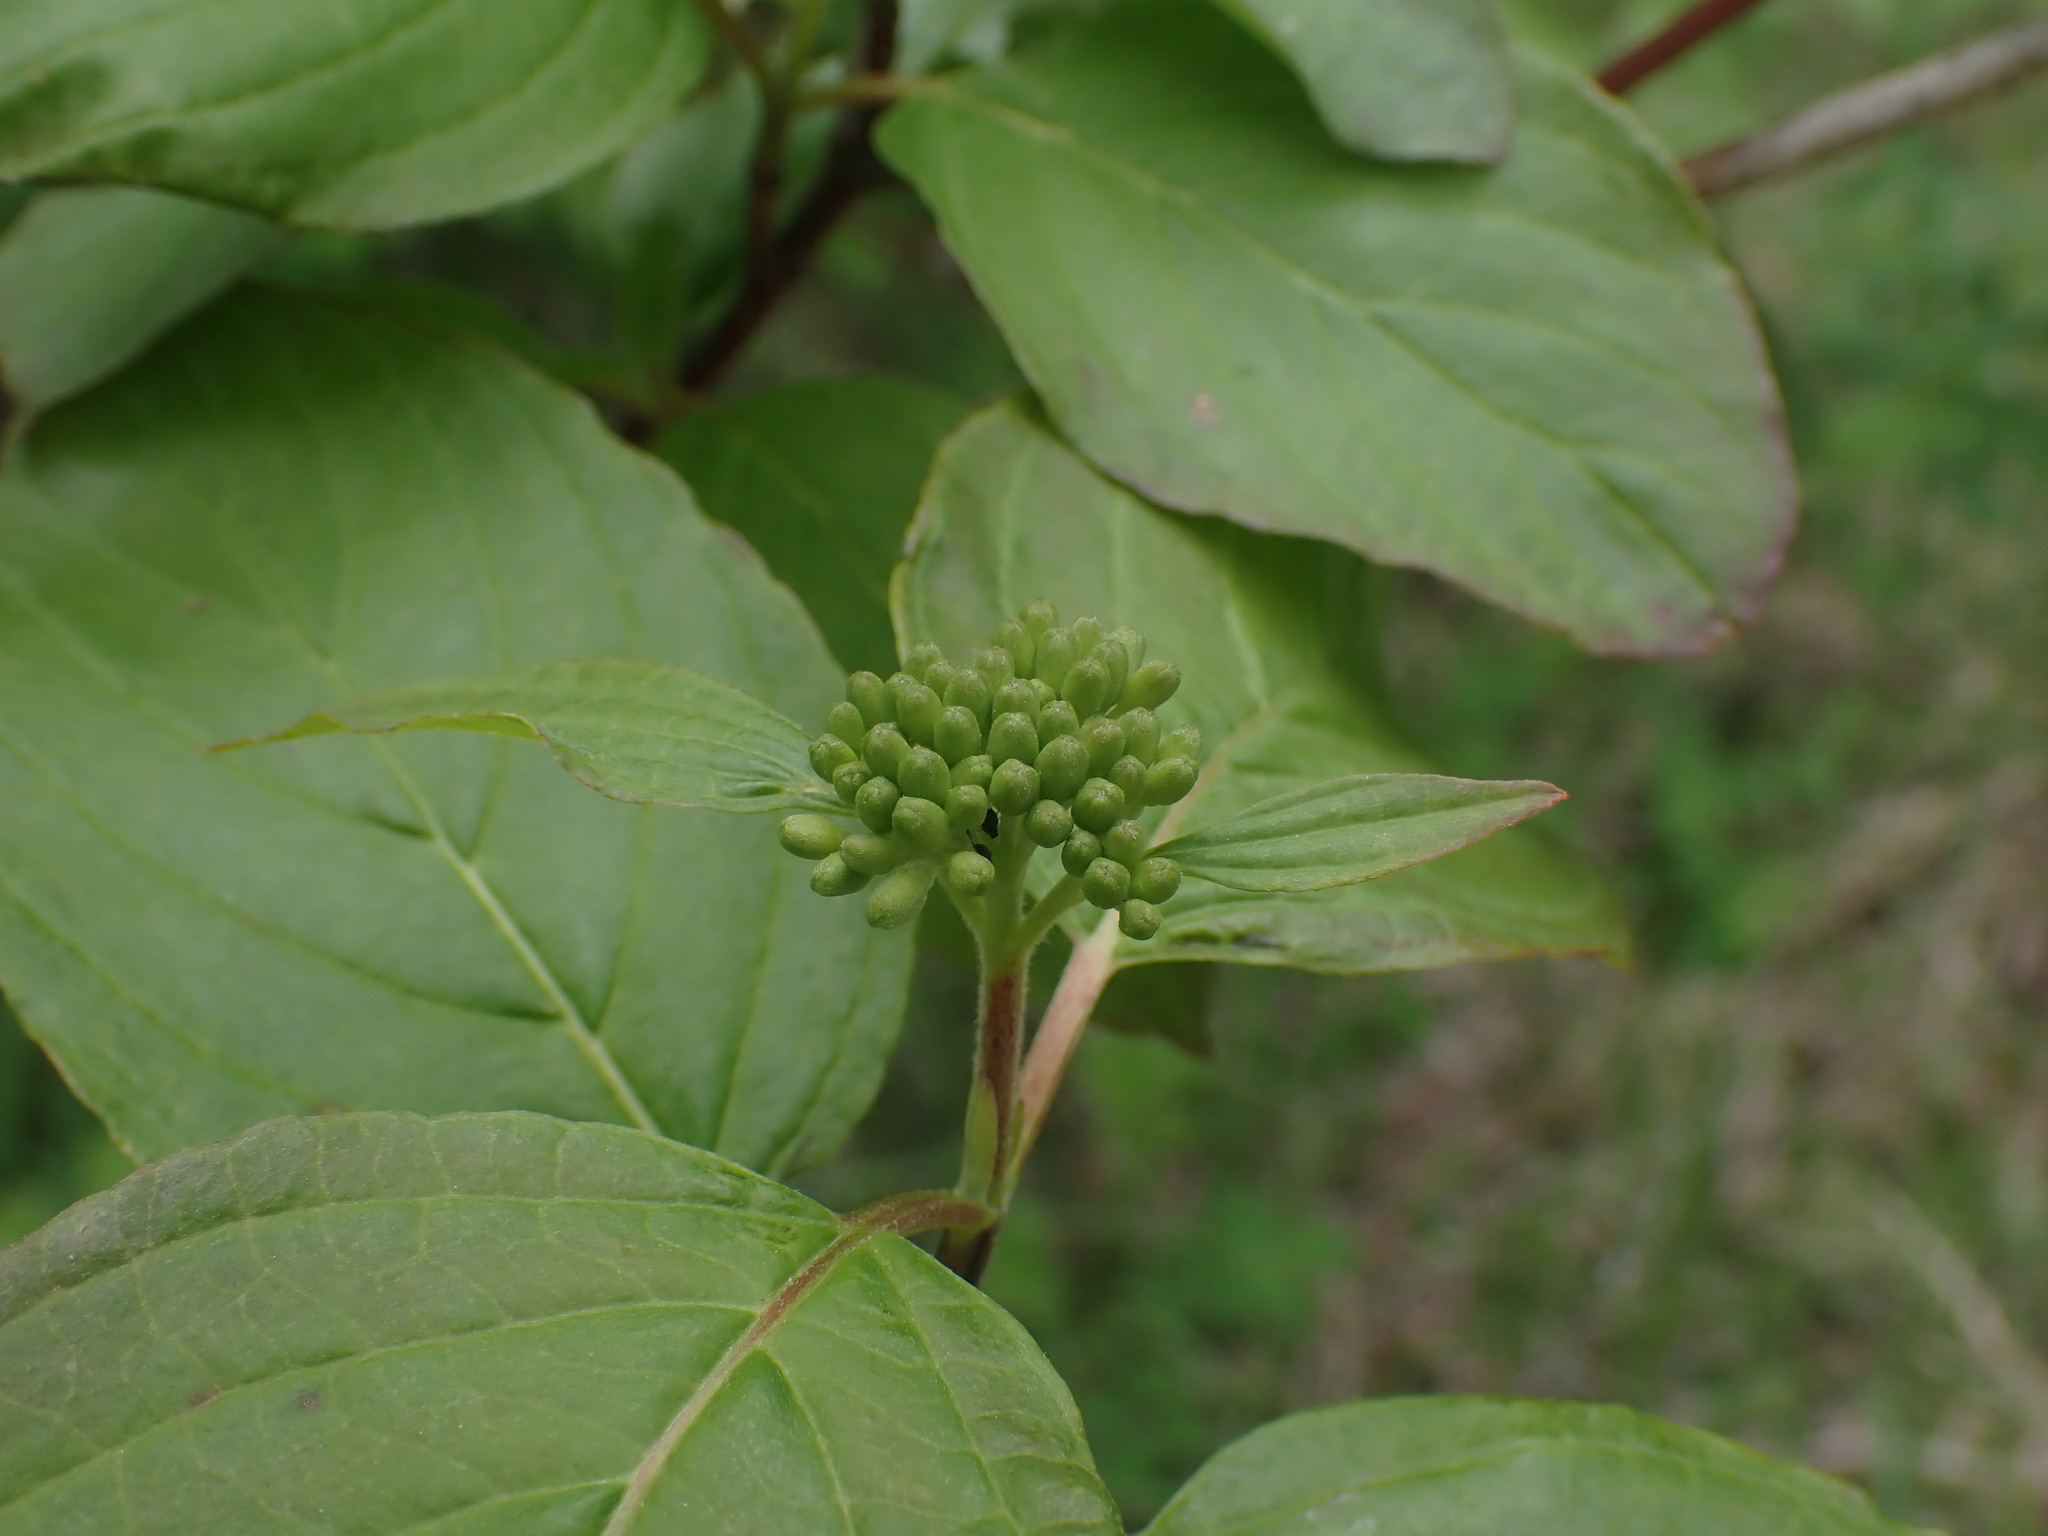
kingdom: Plantae
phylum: Tracheophyta
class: Magnoliopsida
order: Cornales
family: Cornaceae
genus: Cornus
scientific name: Cornus sericea
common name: Red-osier dogwood
